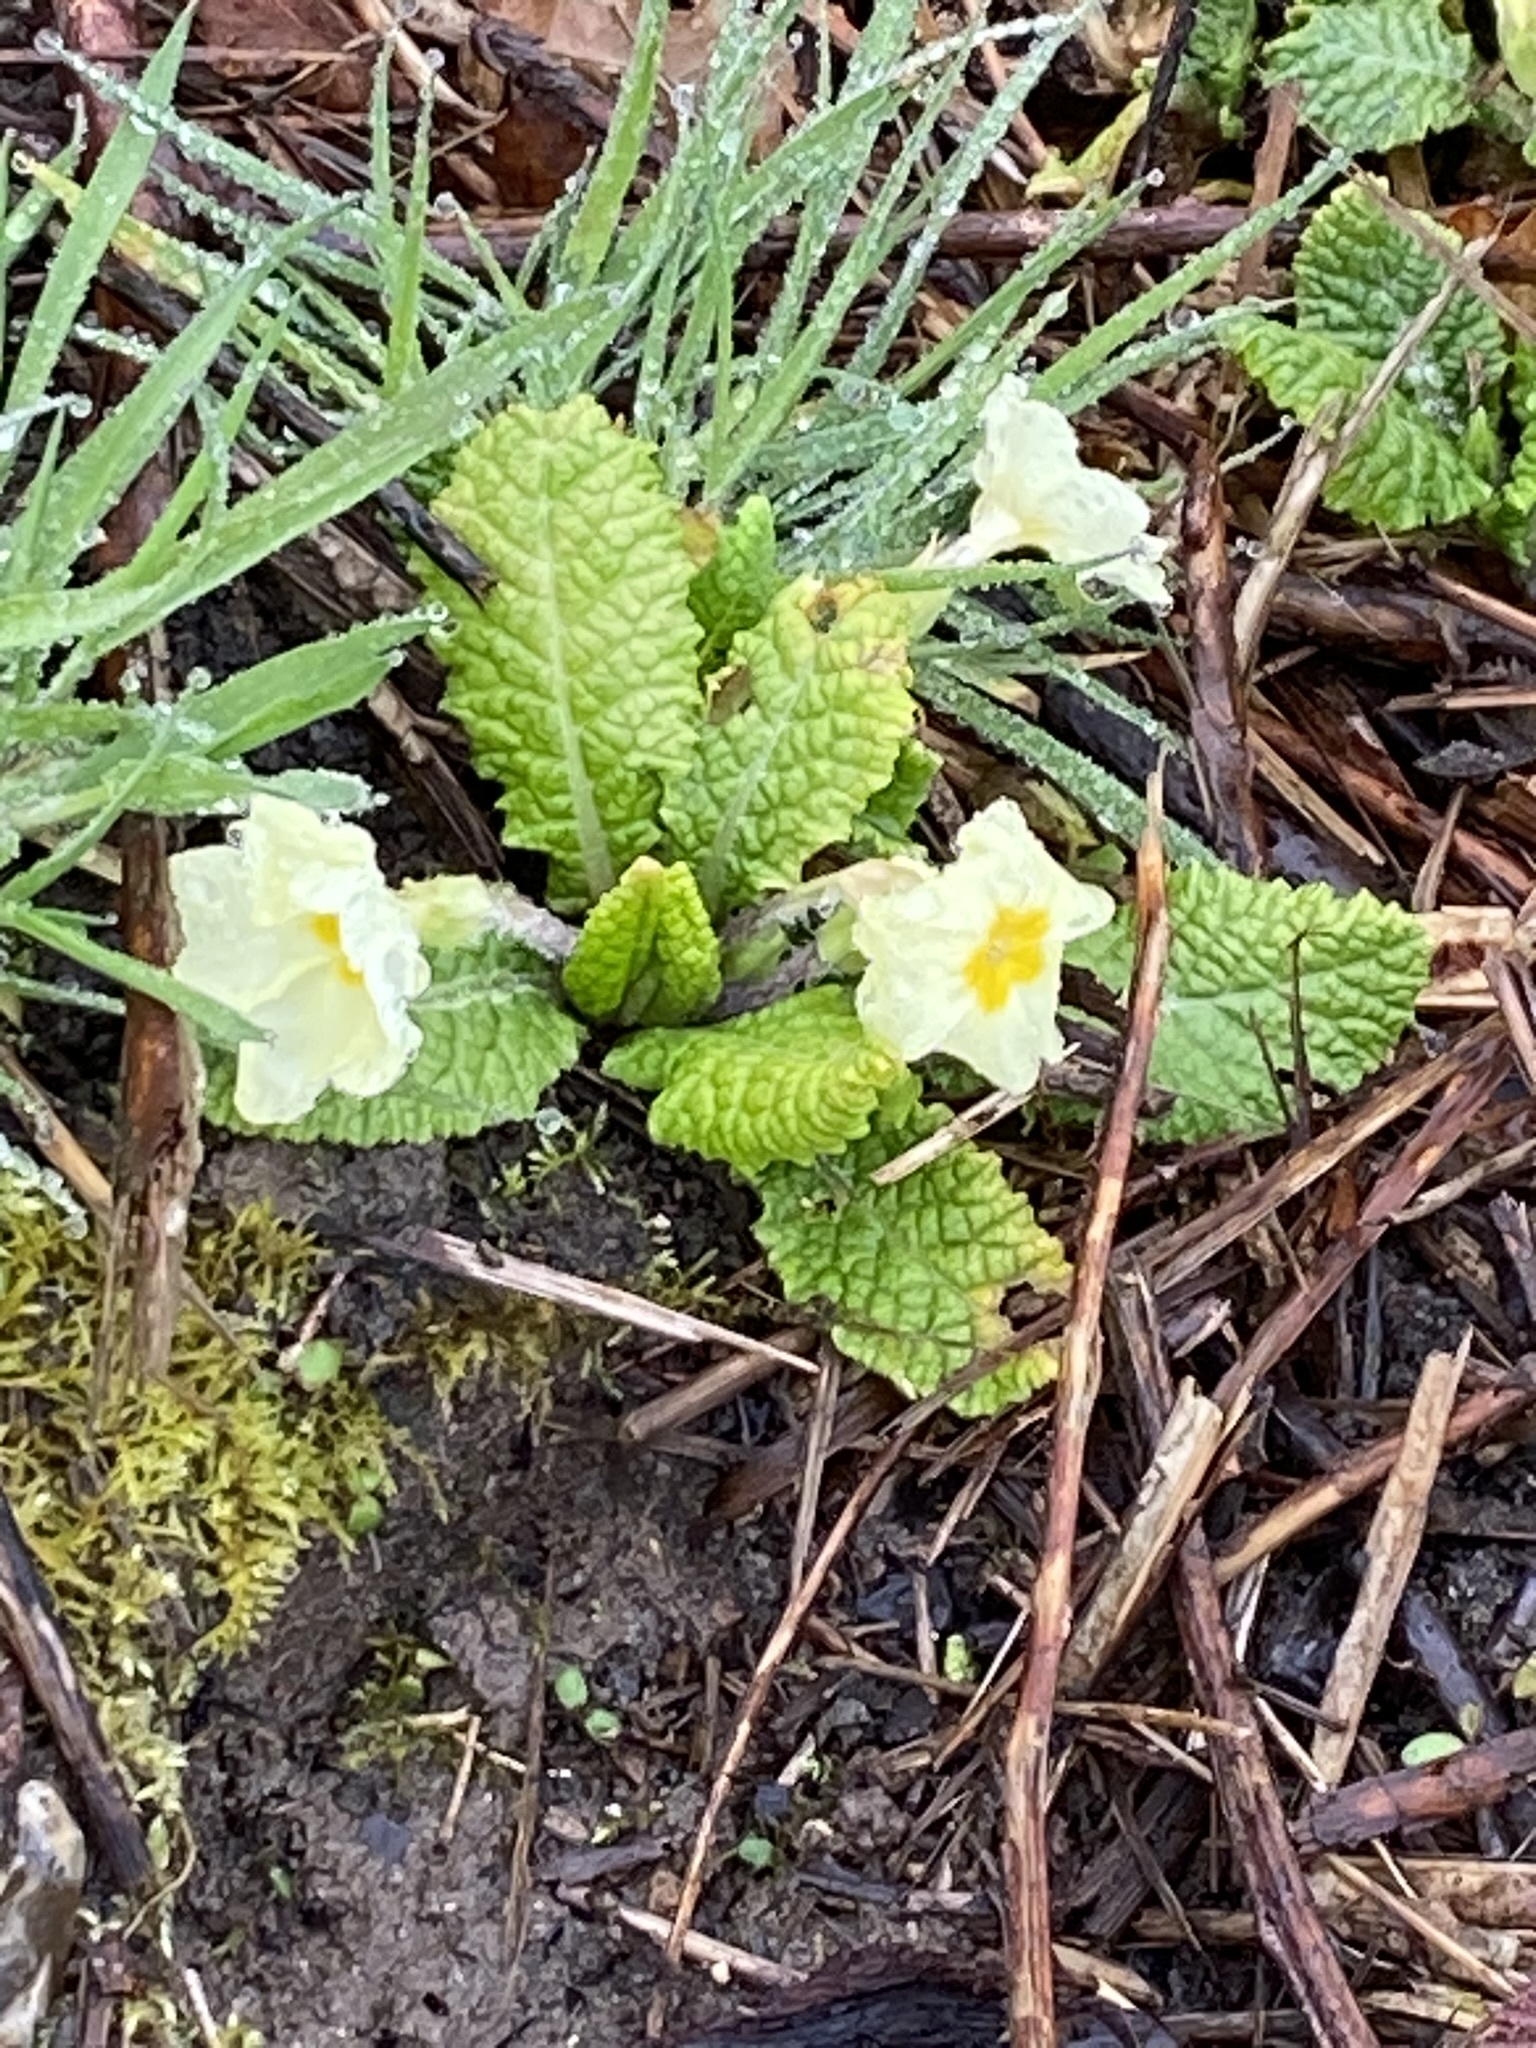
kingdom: Plantae
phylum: Tracheophyta
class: Magnoliopsida
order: Ericales
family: Primulaceae
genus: Primula
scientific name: Primula vulgaris
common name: Primrose
